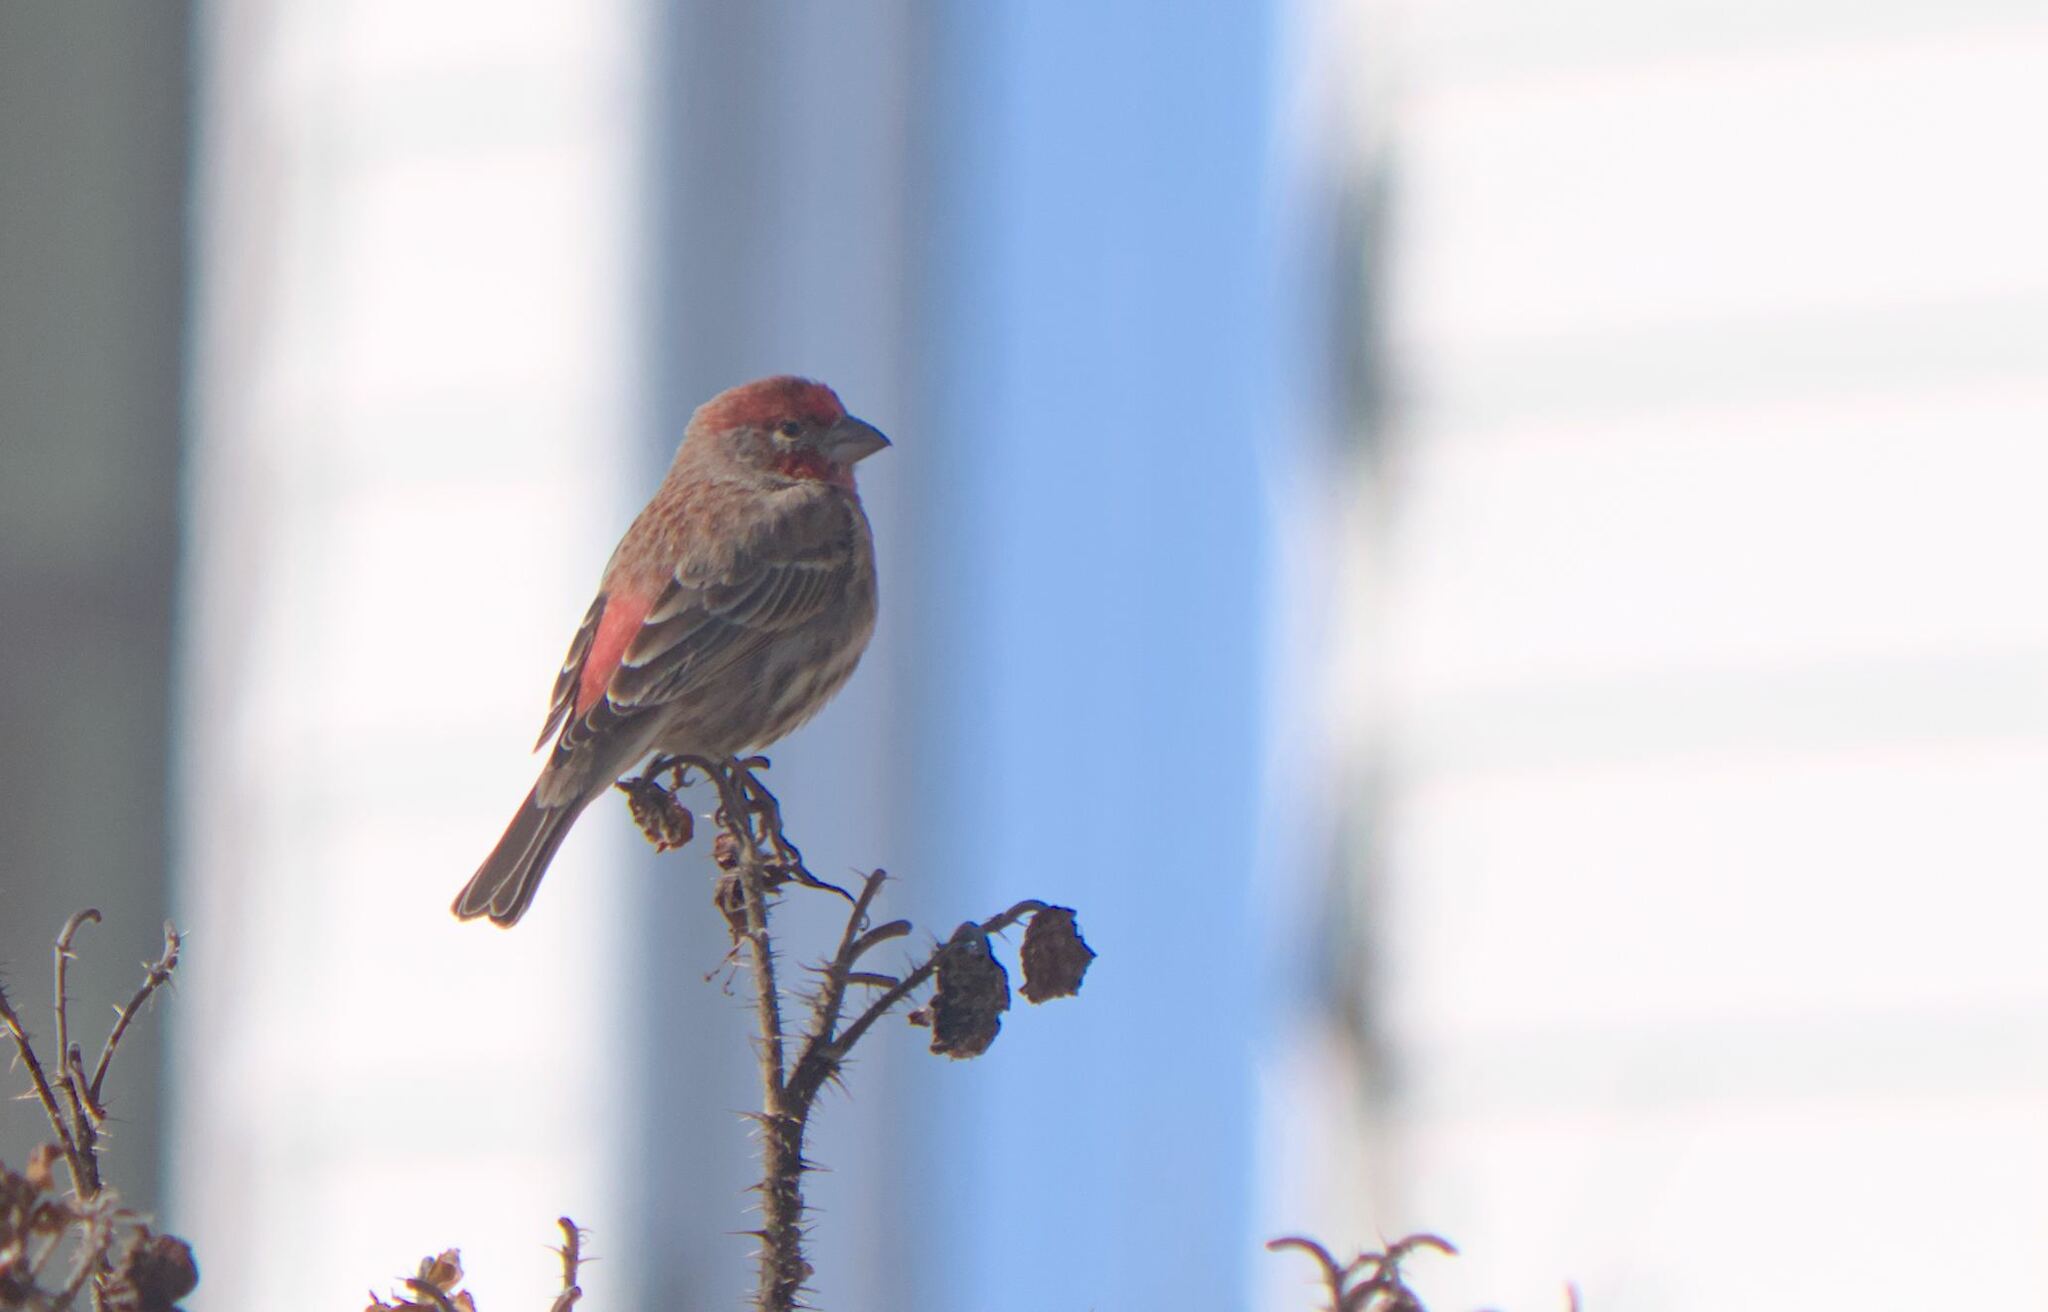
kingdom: Animalia
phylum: Chordata
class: Aves
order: Passeriformes
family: Fringillidae
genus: Haemorhous
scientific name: Haemorhous mexicanus
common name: House finch
